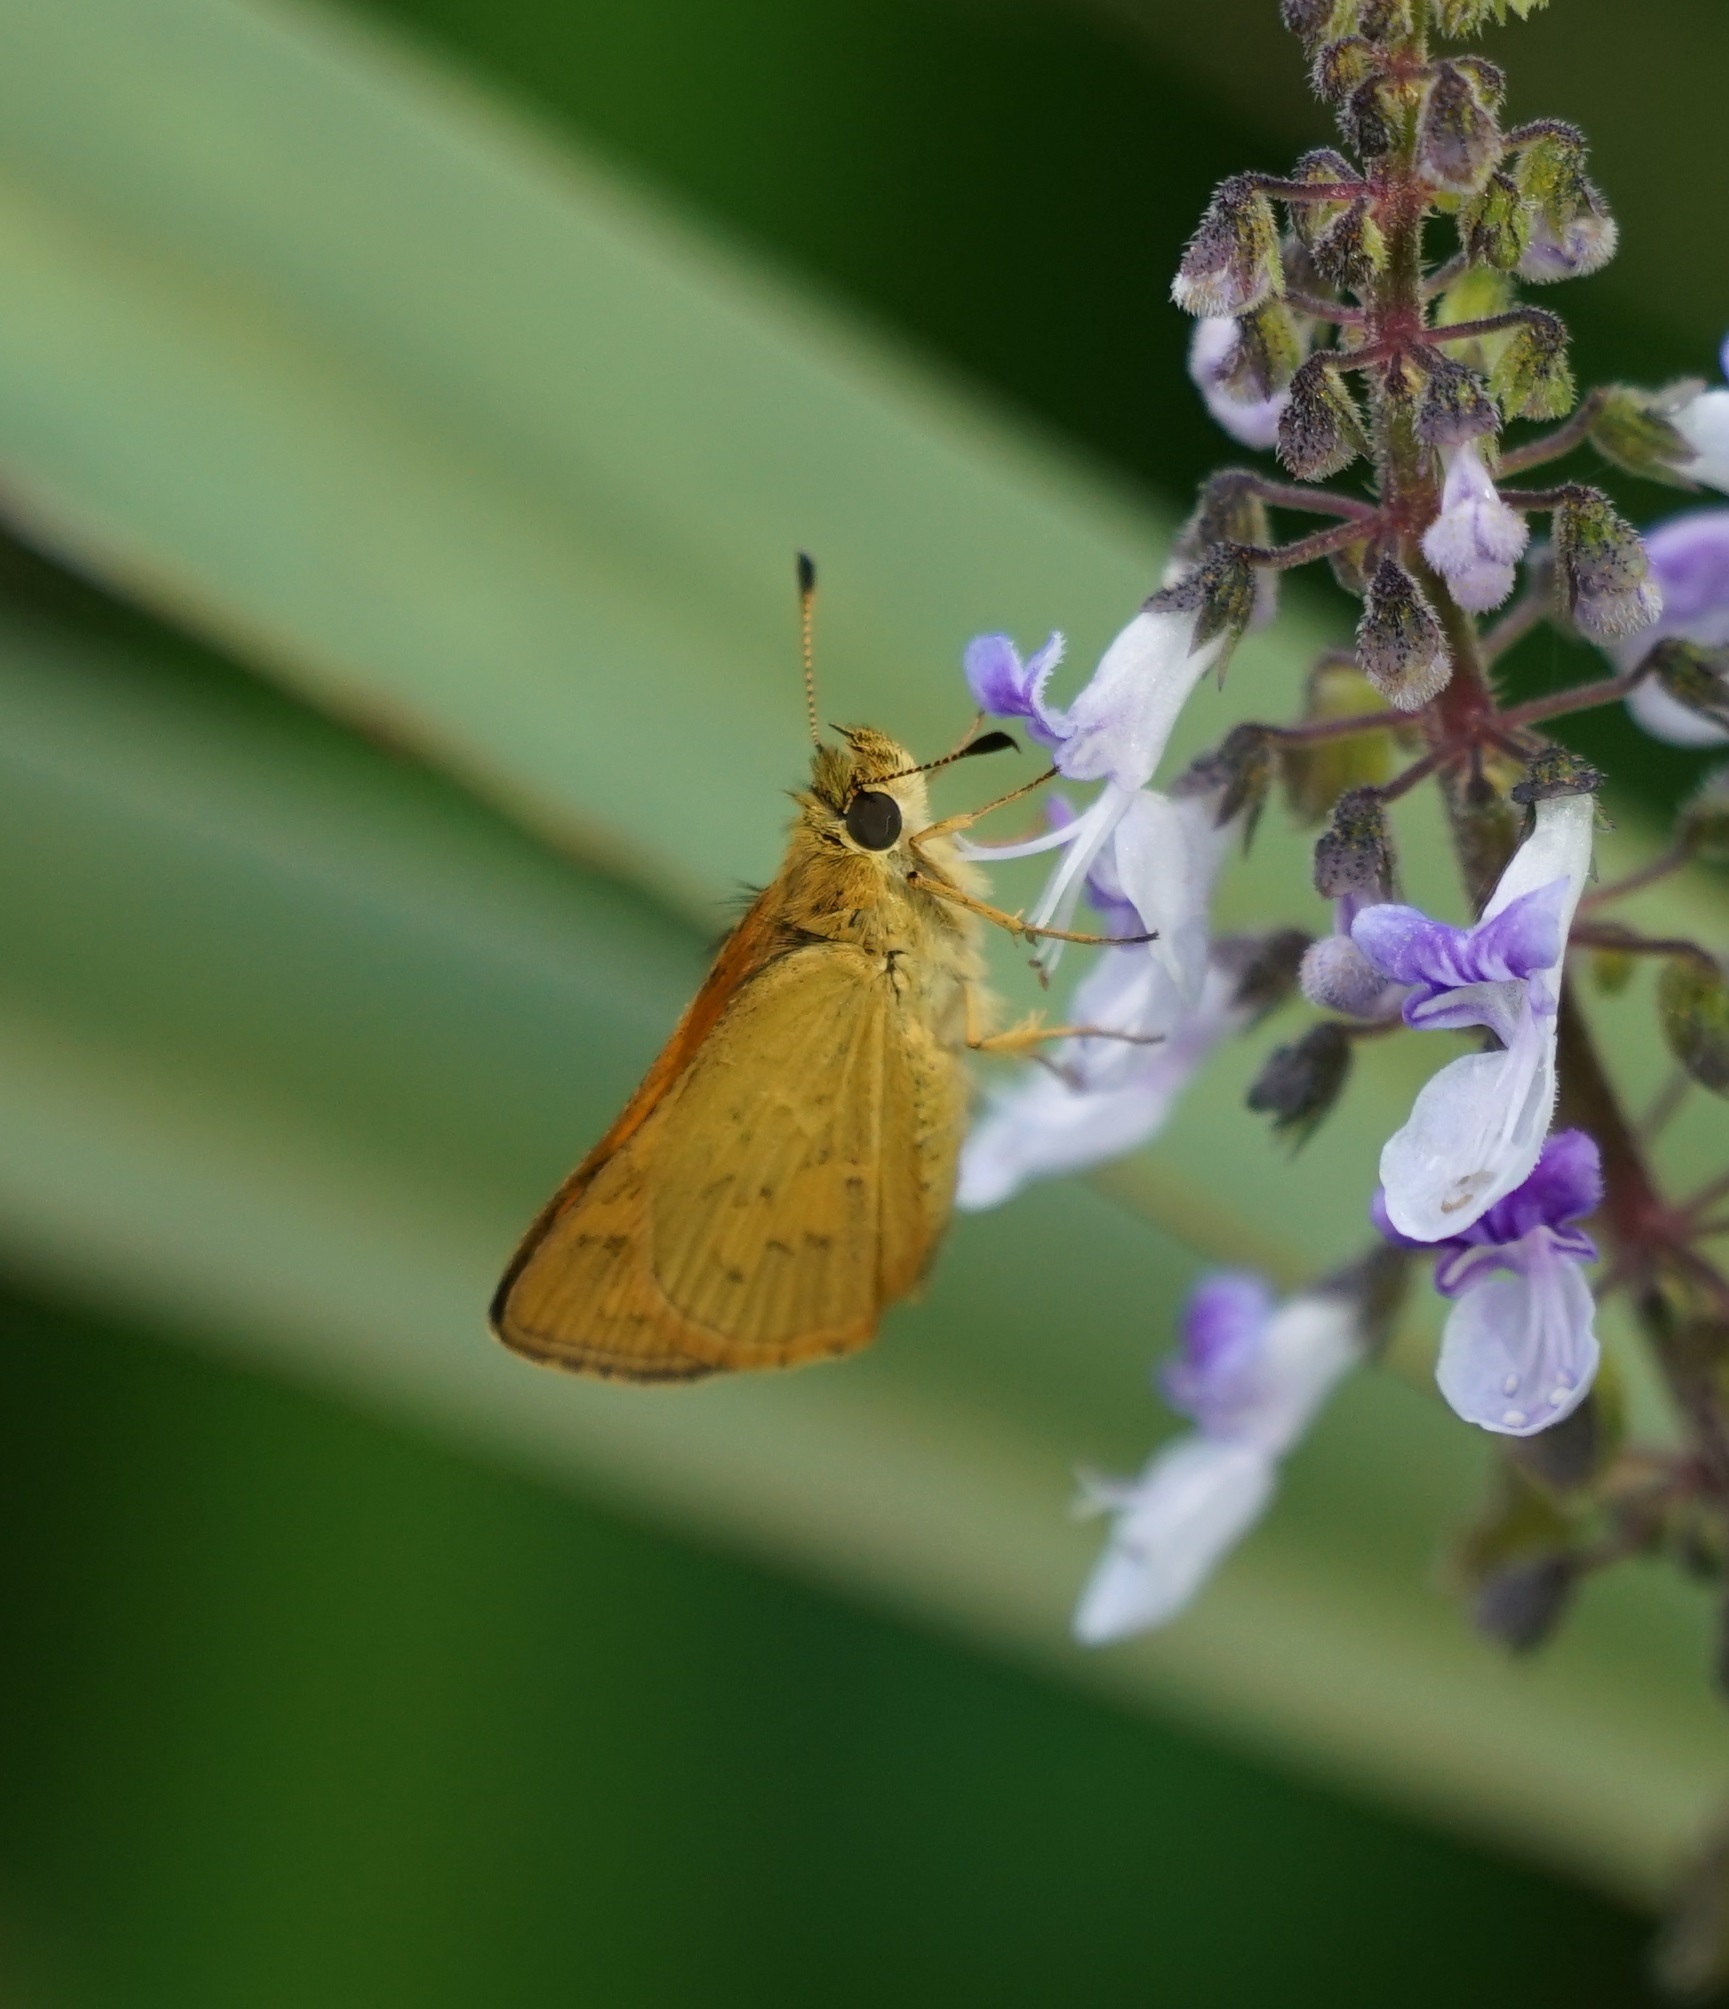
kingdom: Animalia
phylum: Arthropoda
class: Insecta
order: Lepidoptera
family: Hesperiidae
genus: Ocybadistes
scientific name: Ocybadistes walkeri
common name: Yellow-banded dart
